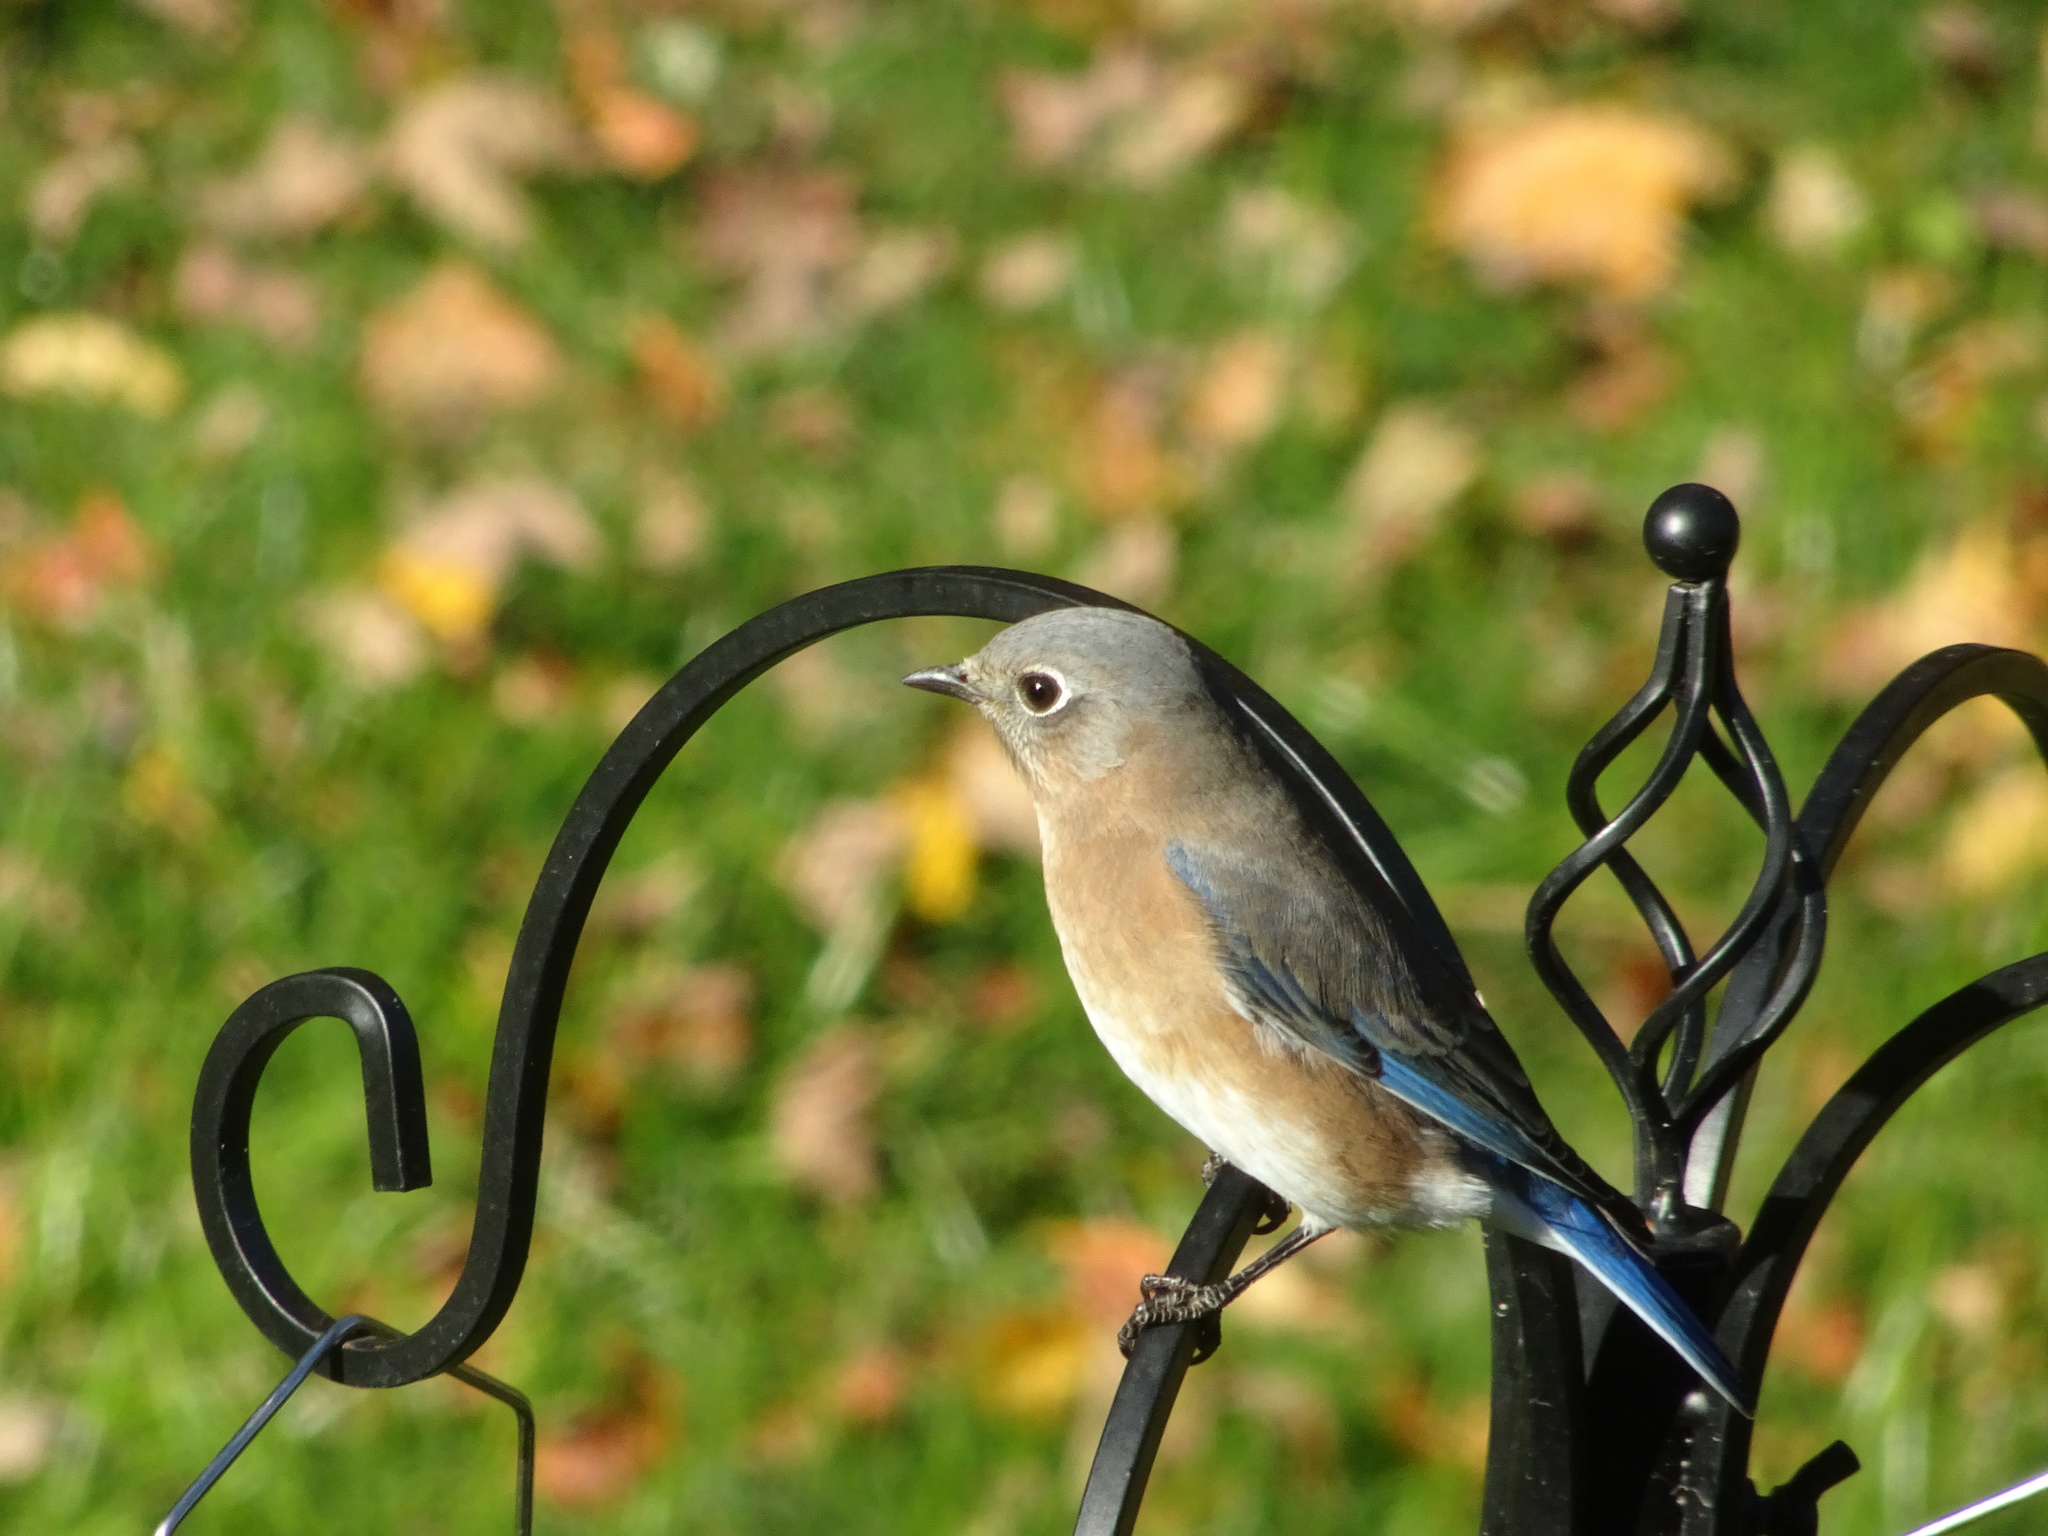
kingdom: Animalia
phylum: Chordata
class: Aves
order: Passeriformes
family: Turdidae
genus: Sialia
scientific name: Sialia sialis
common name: Eastern bluebird
